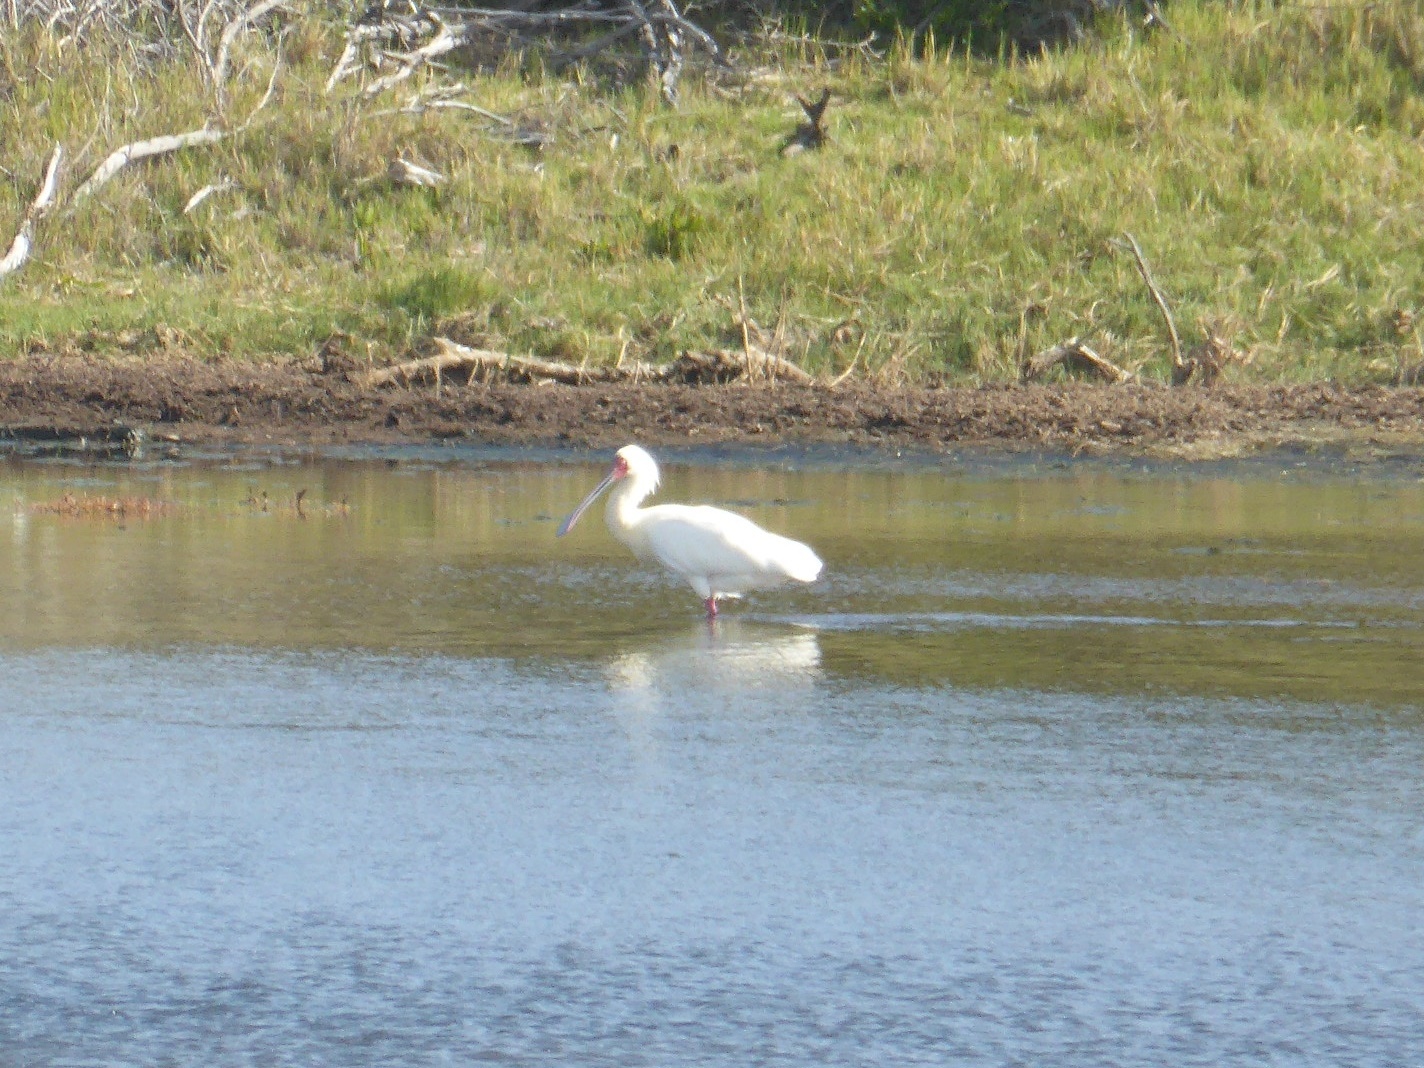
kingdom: Animalia
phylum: Chordata
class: Aves
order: Pelecaniformes
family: Threskiornithidae
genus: Platalea
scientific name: Platalea alba
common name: African spoonbill
